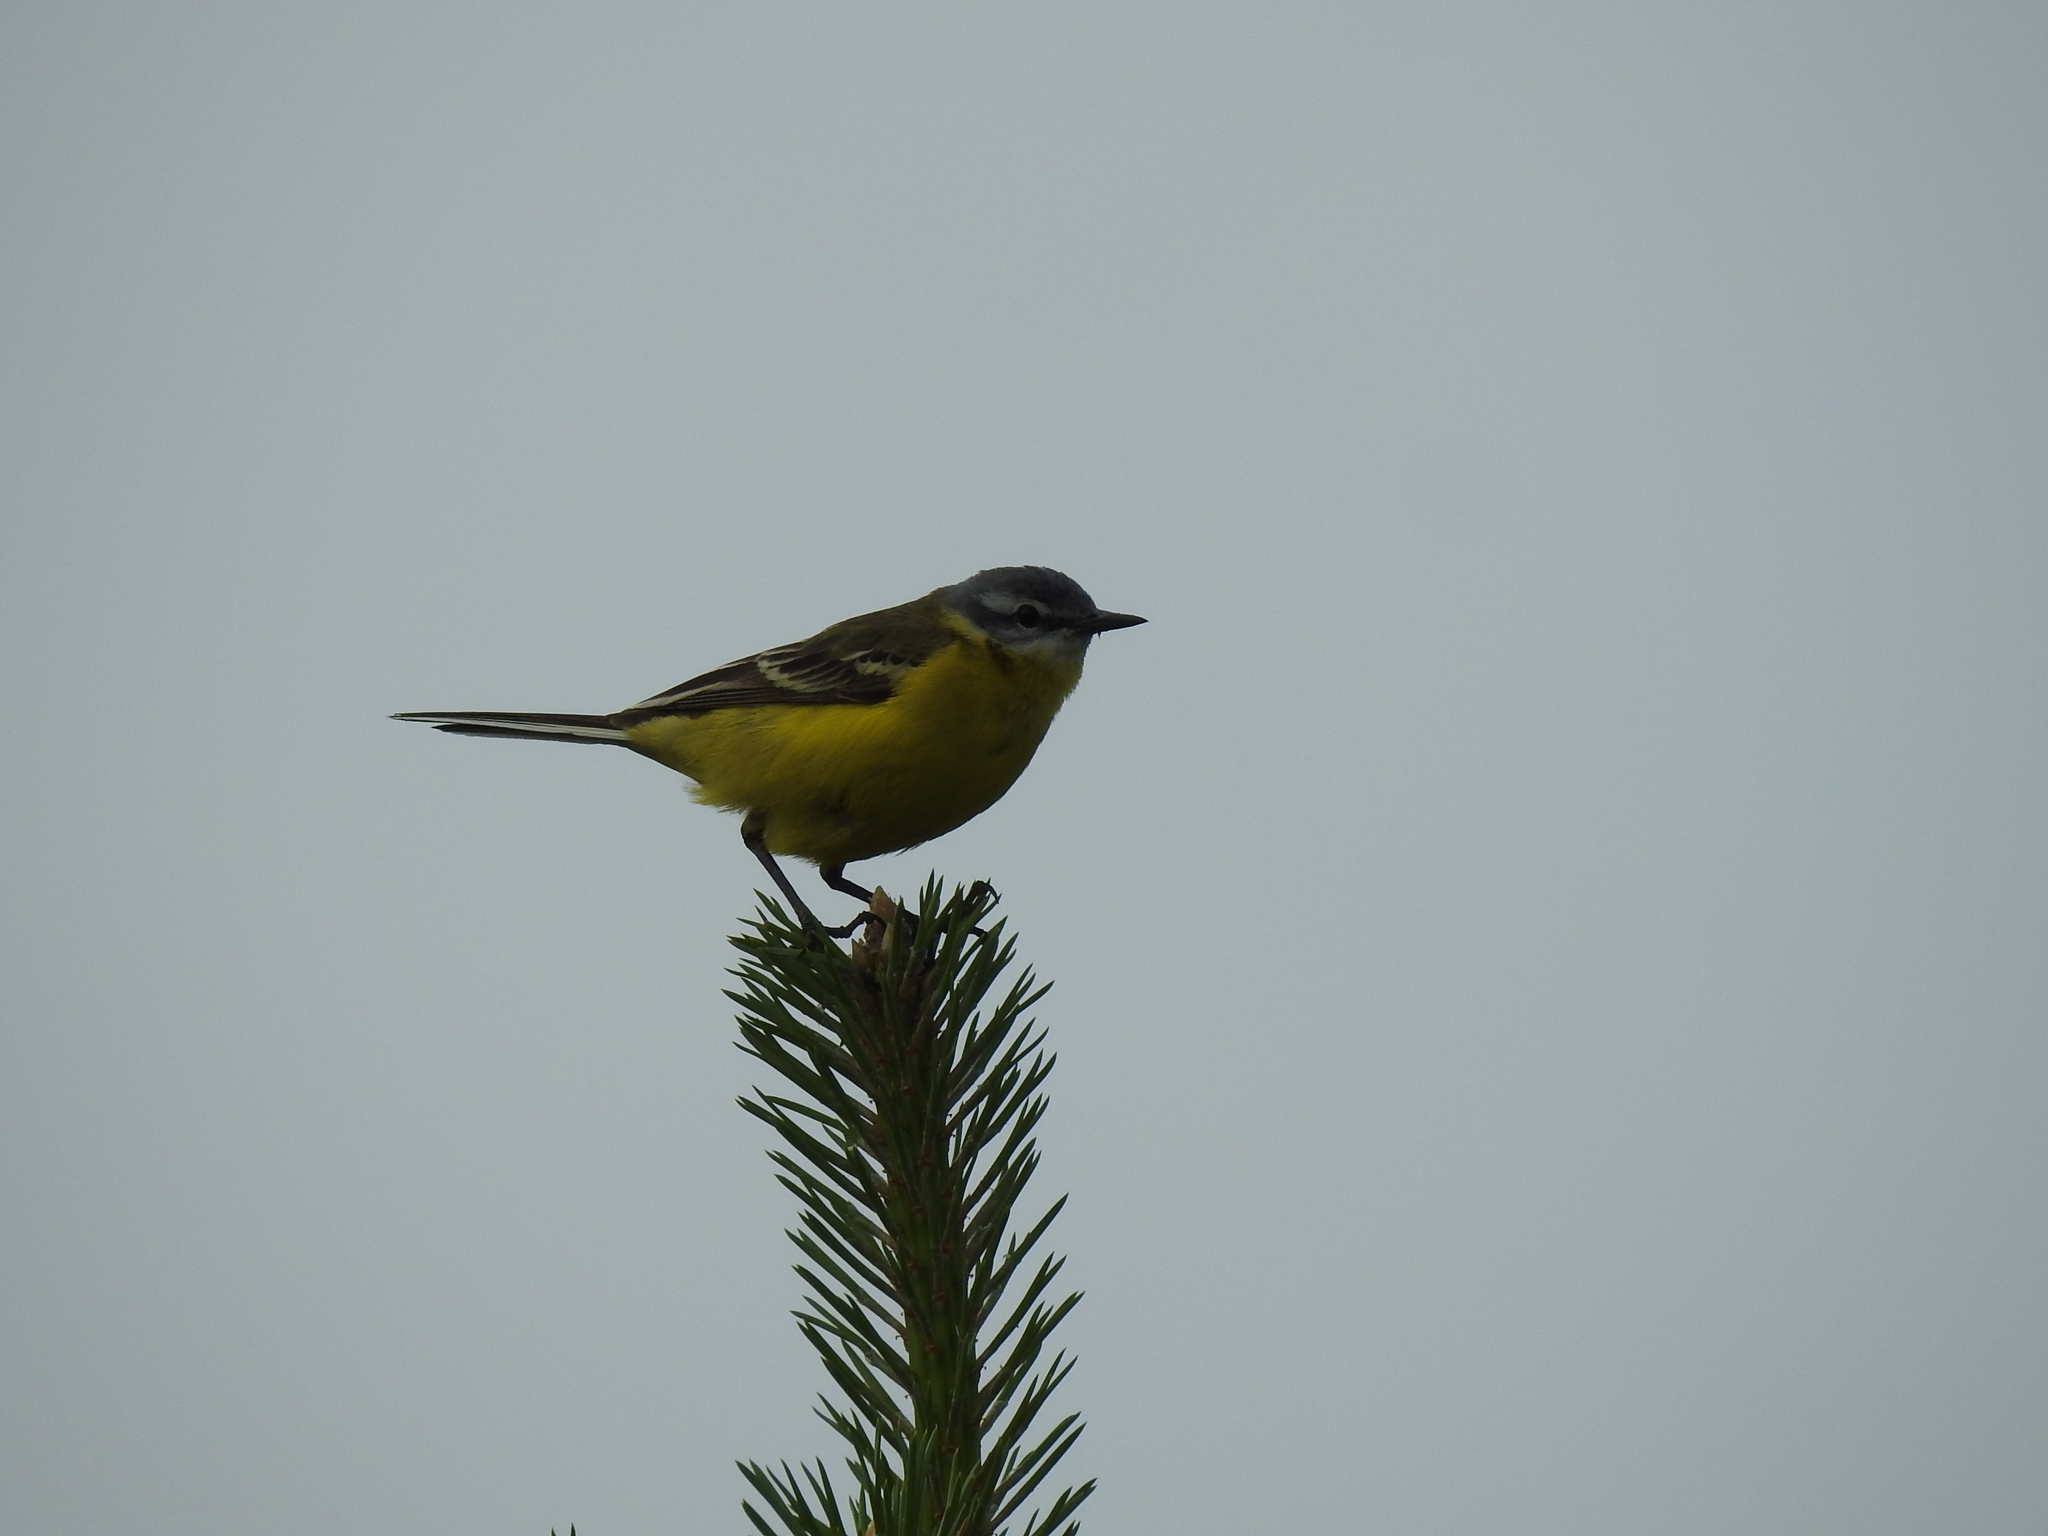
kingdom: Animalia
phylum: Chordata
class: Aves
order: Passeriformes
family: Motacillidae
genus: Motacilla
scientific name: Motacilla flava
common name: Western yellow wagtail
